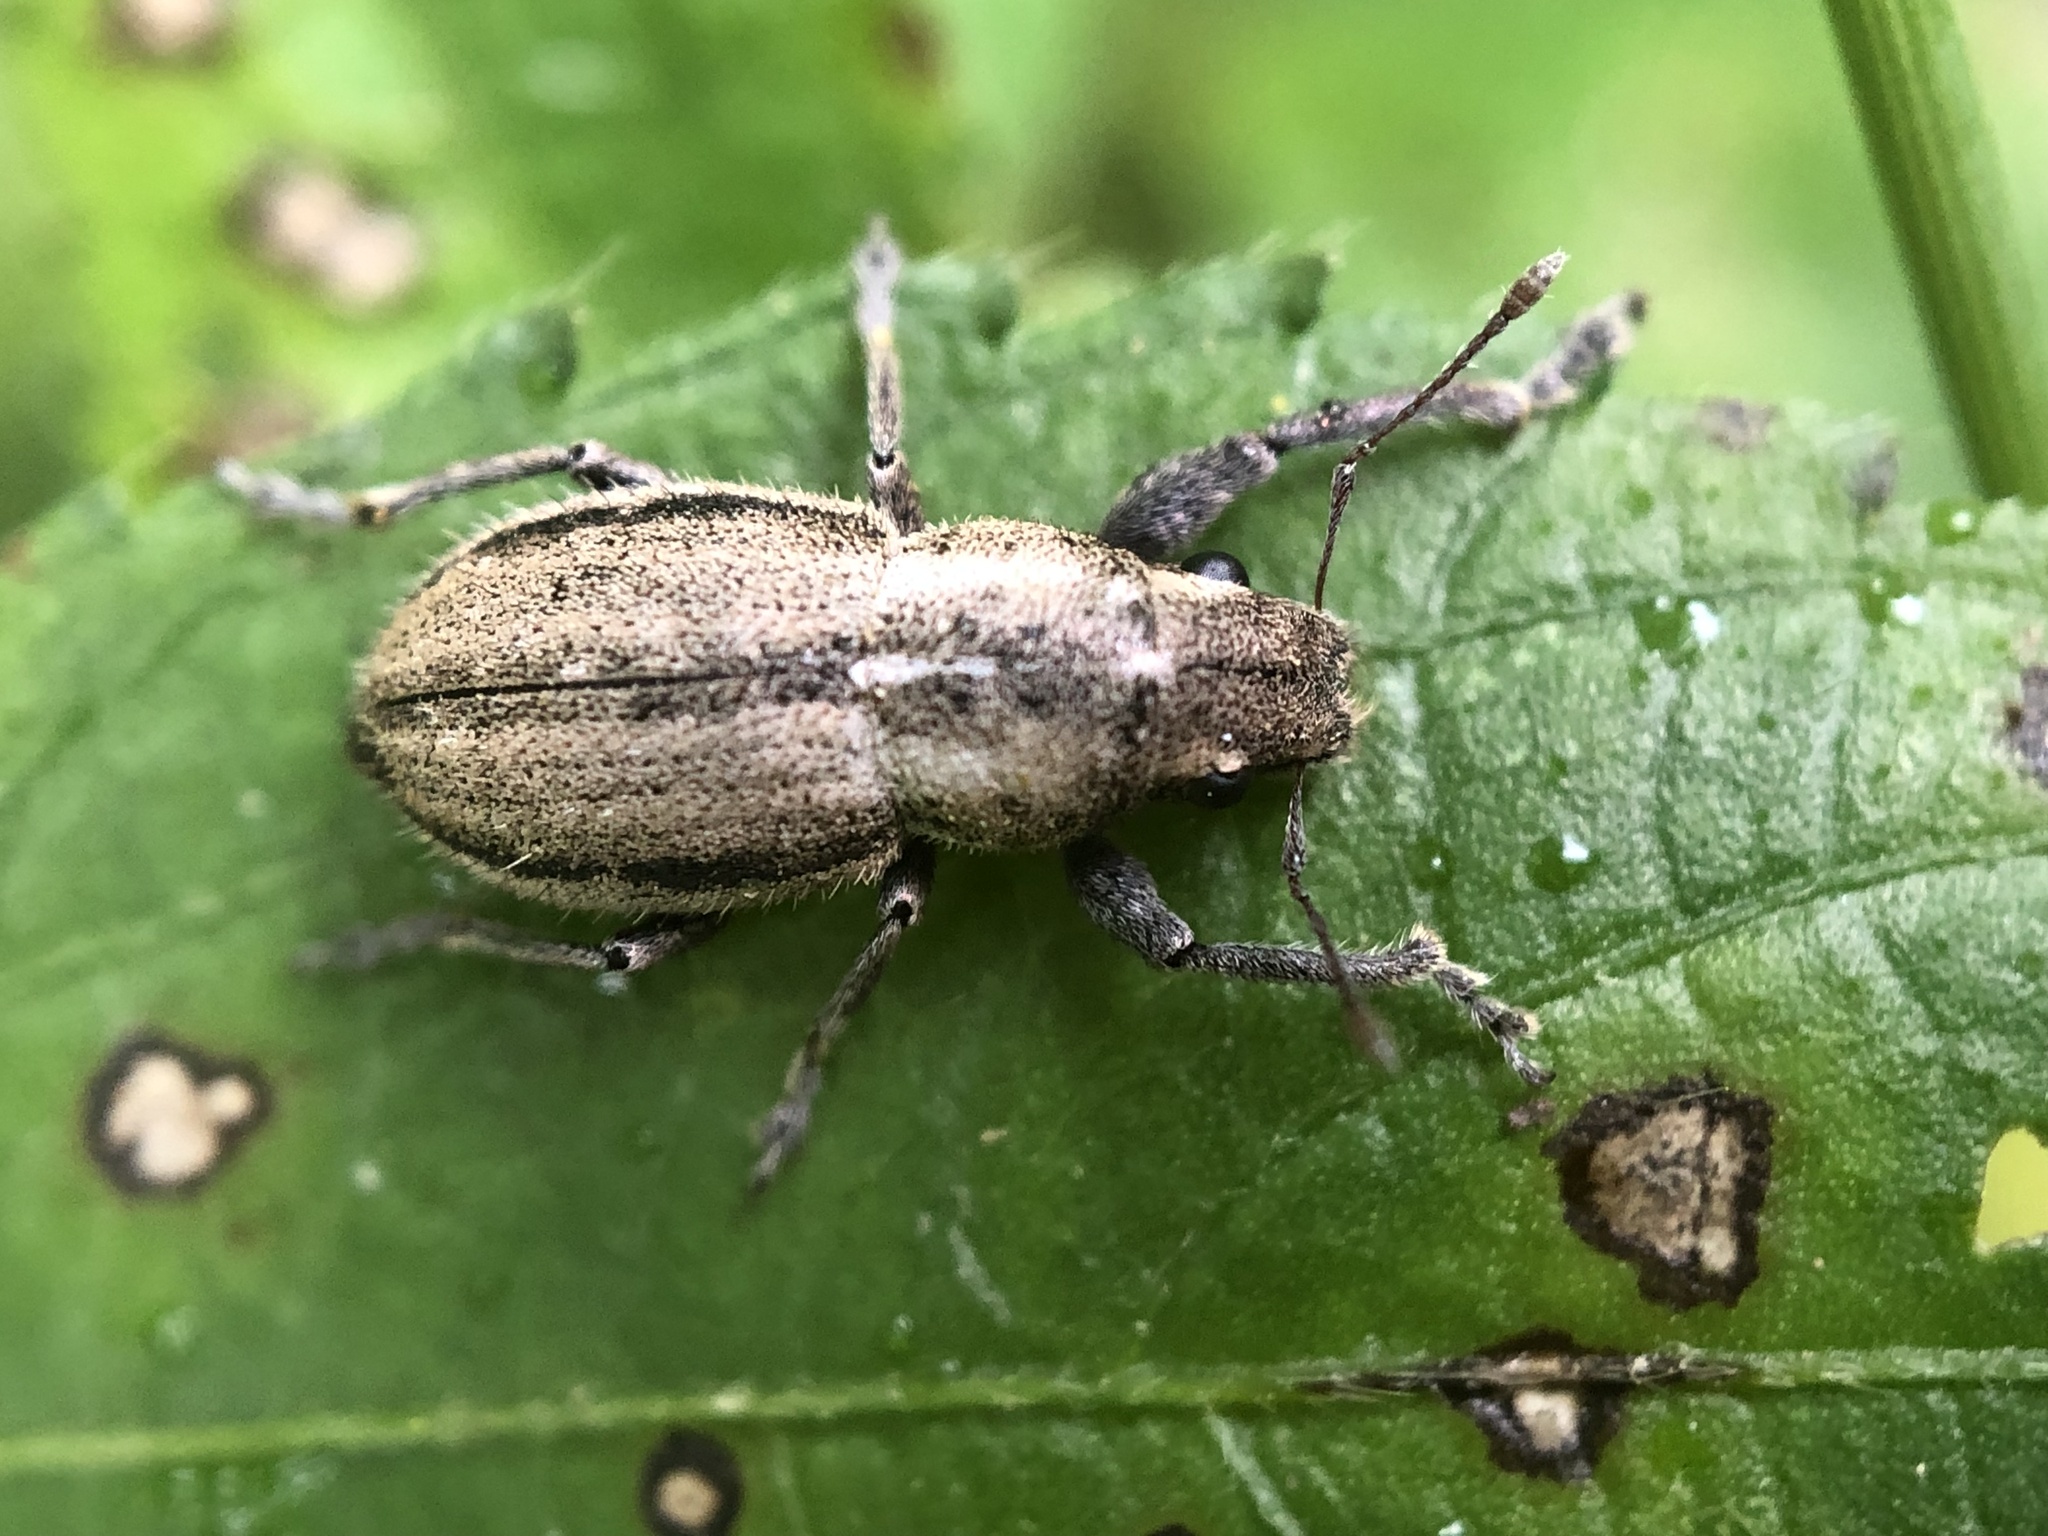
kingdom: Animalia
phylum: Arthropoda
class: Insecta
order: Coleoptera
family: Curculionidae
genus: Naupactus
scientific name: Naupactus peregrinus
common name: Whitefringed beetle
